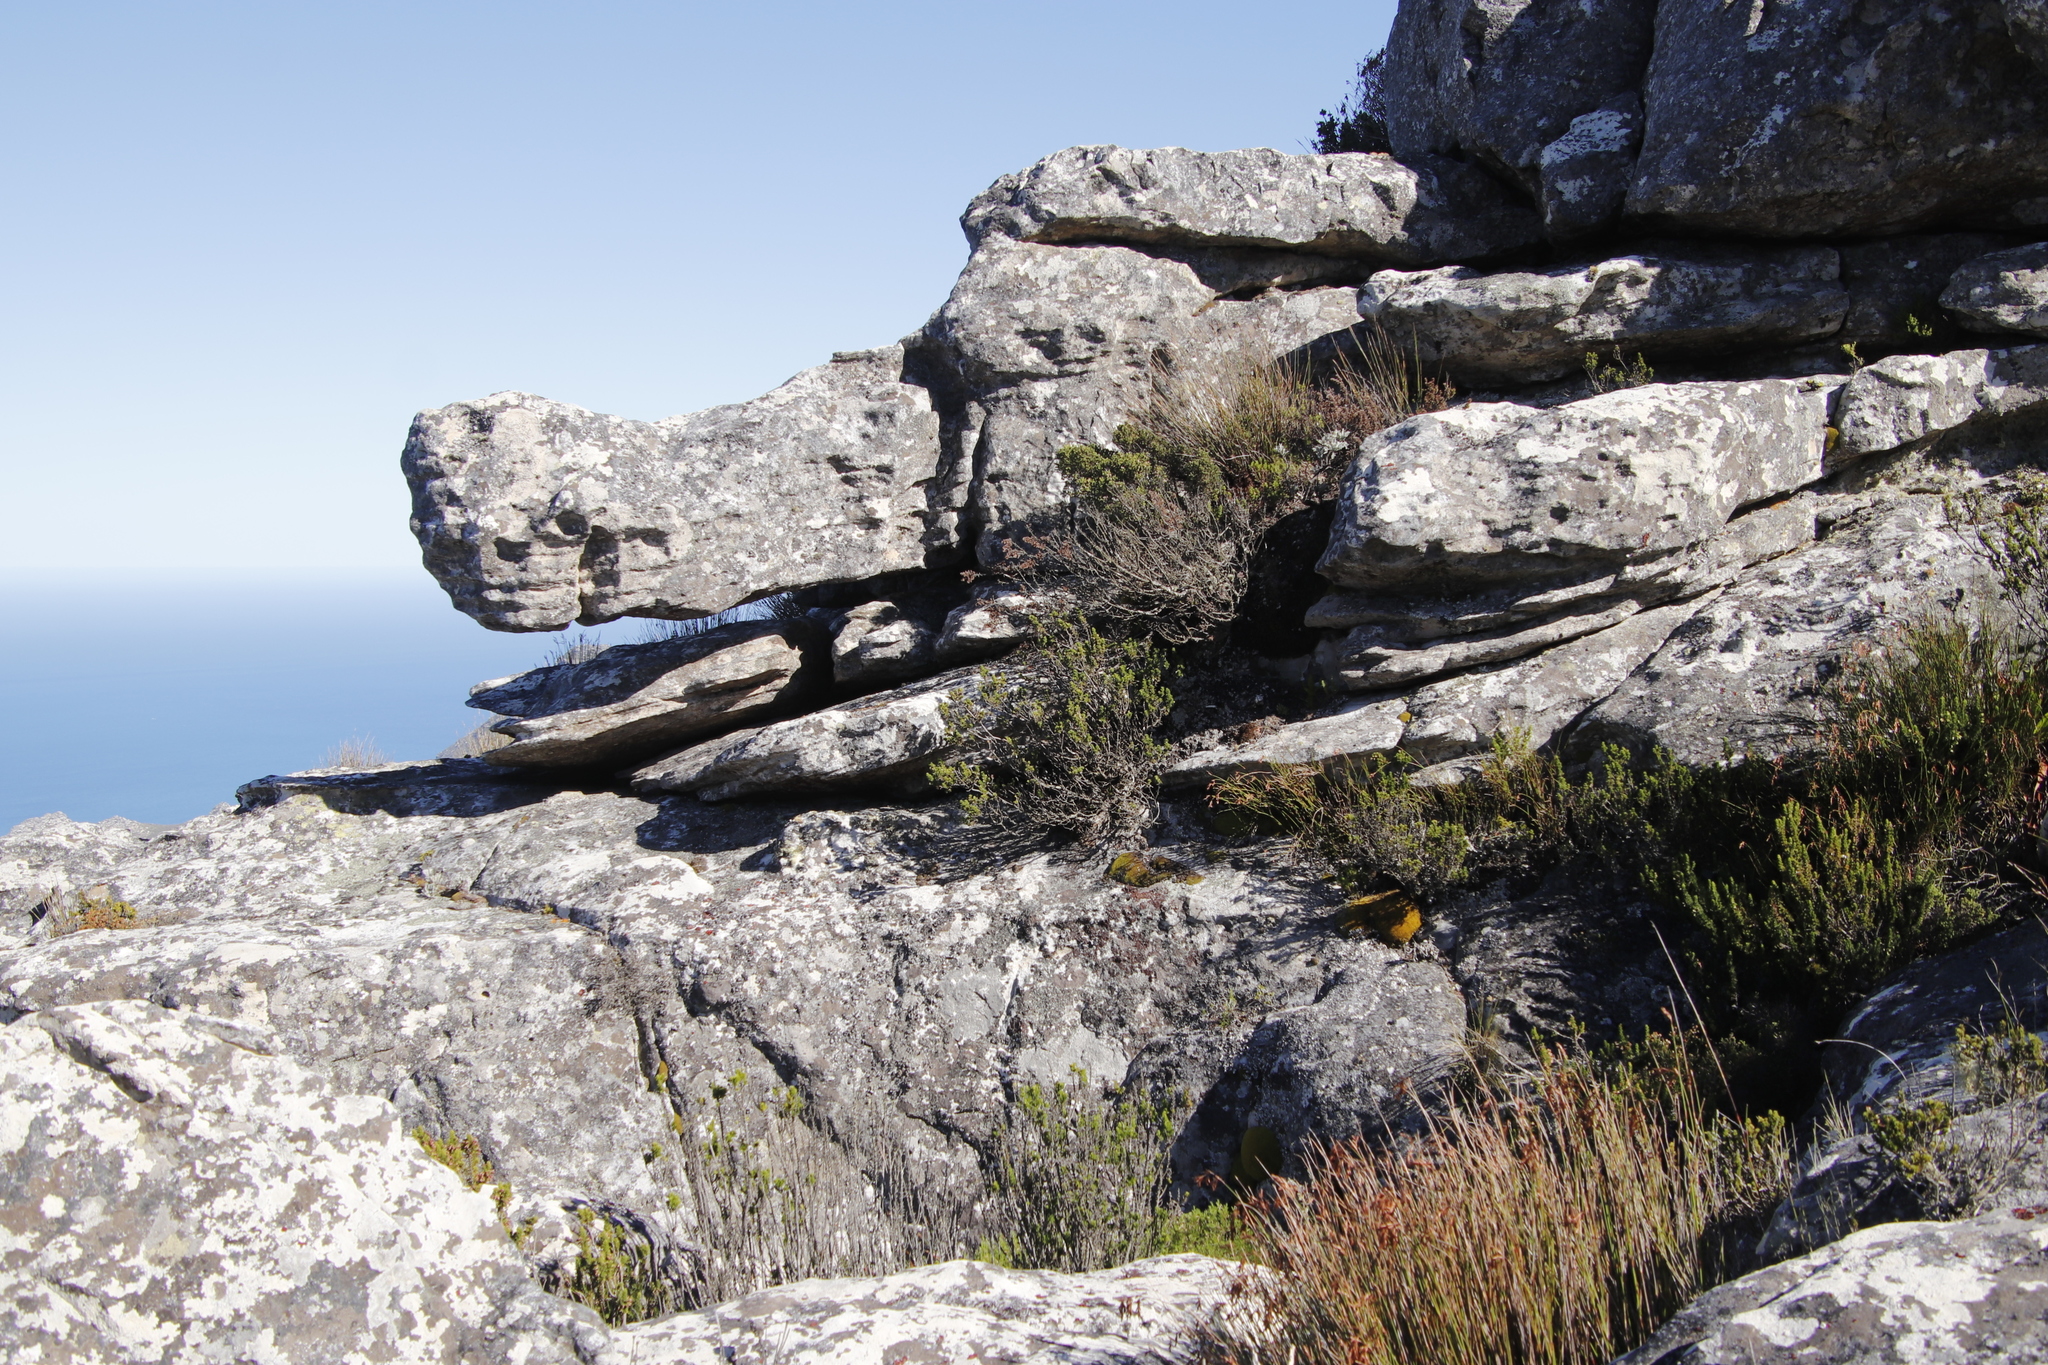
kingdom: Plantae
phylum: Tracheophyta
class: Magnoliopsida
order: Ericales
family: Ericaceae
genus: Erica
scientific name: Erica coccinea
